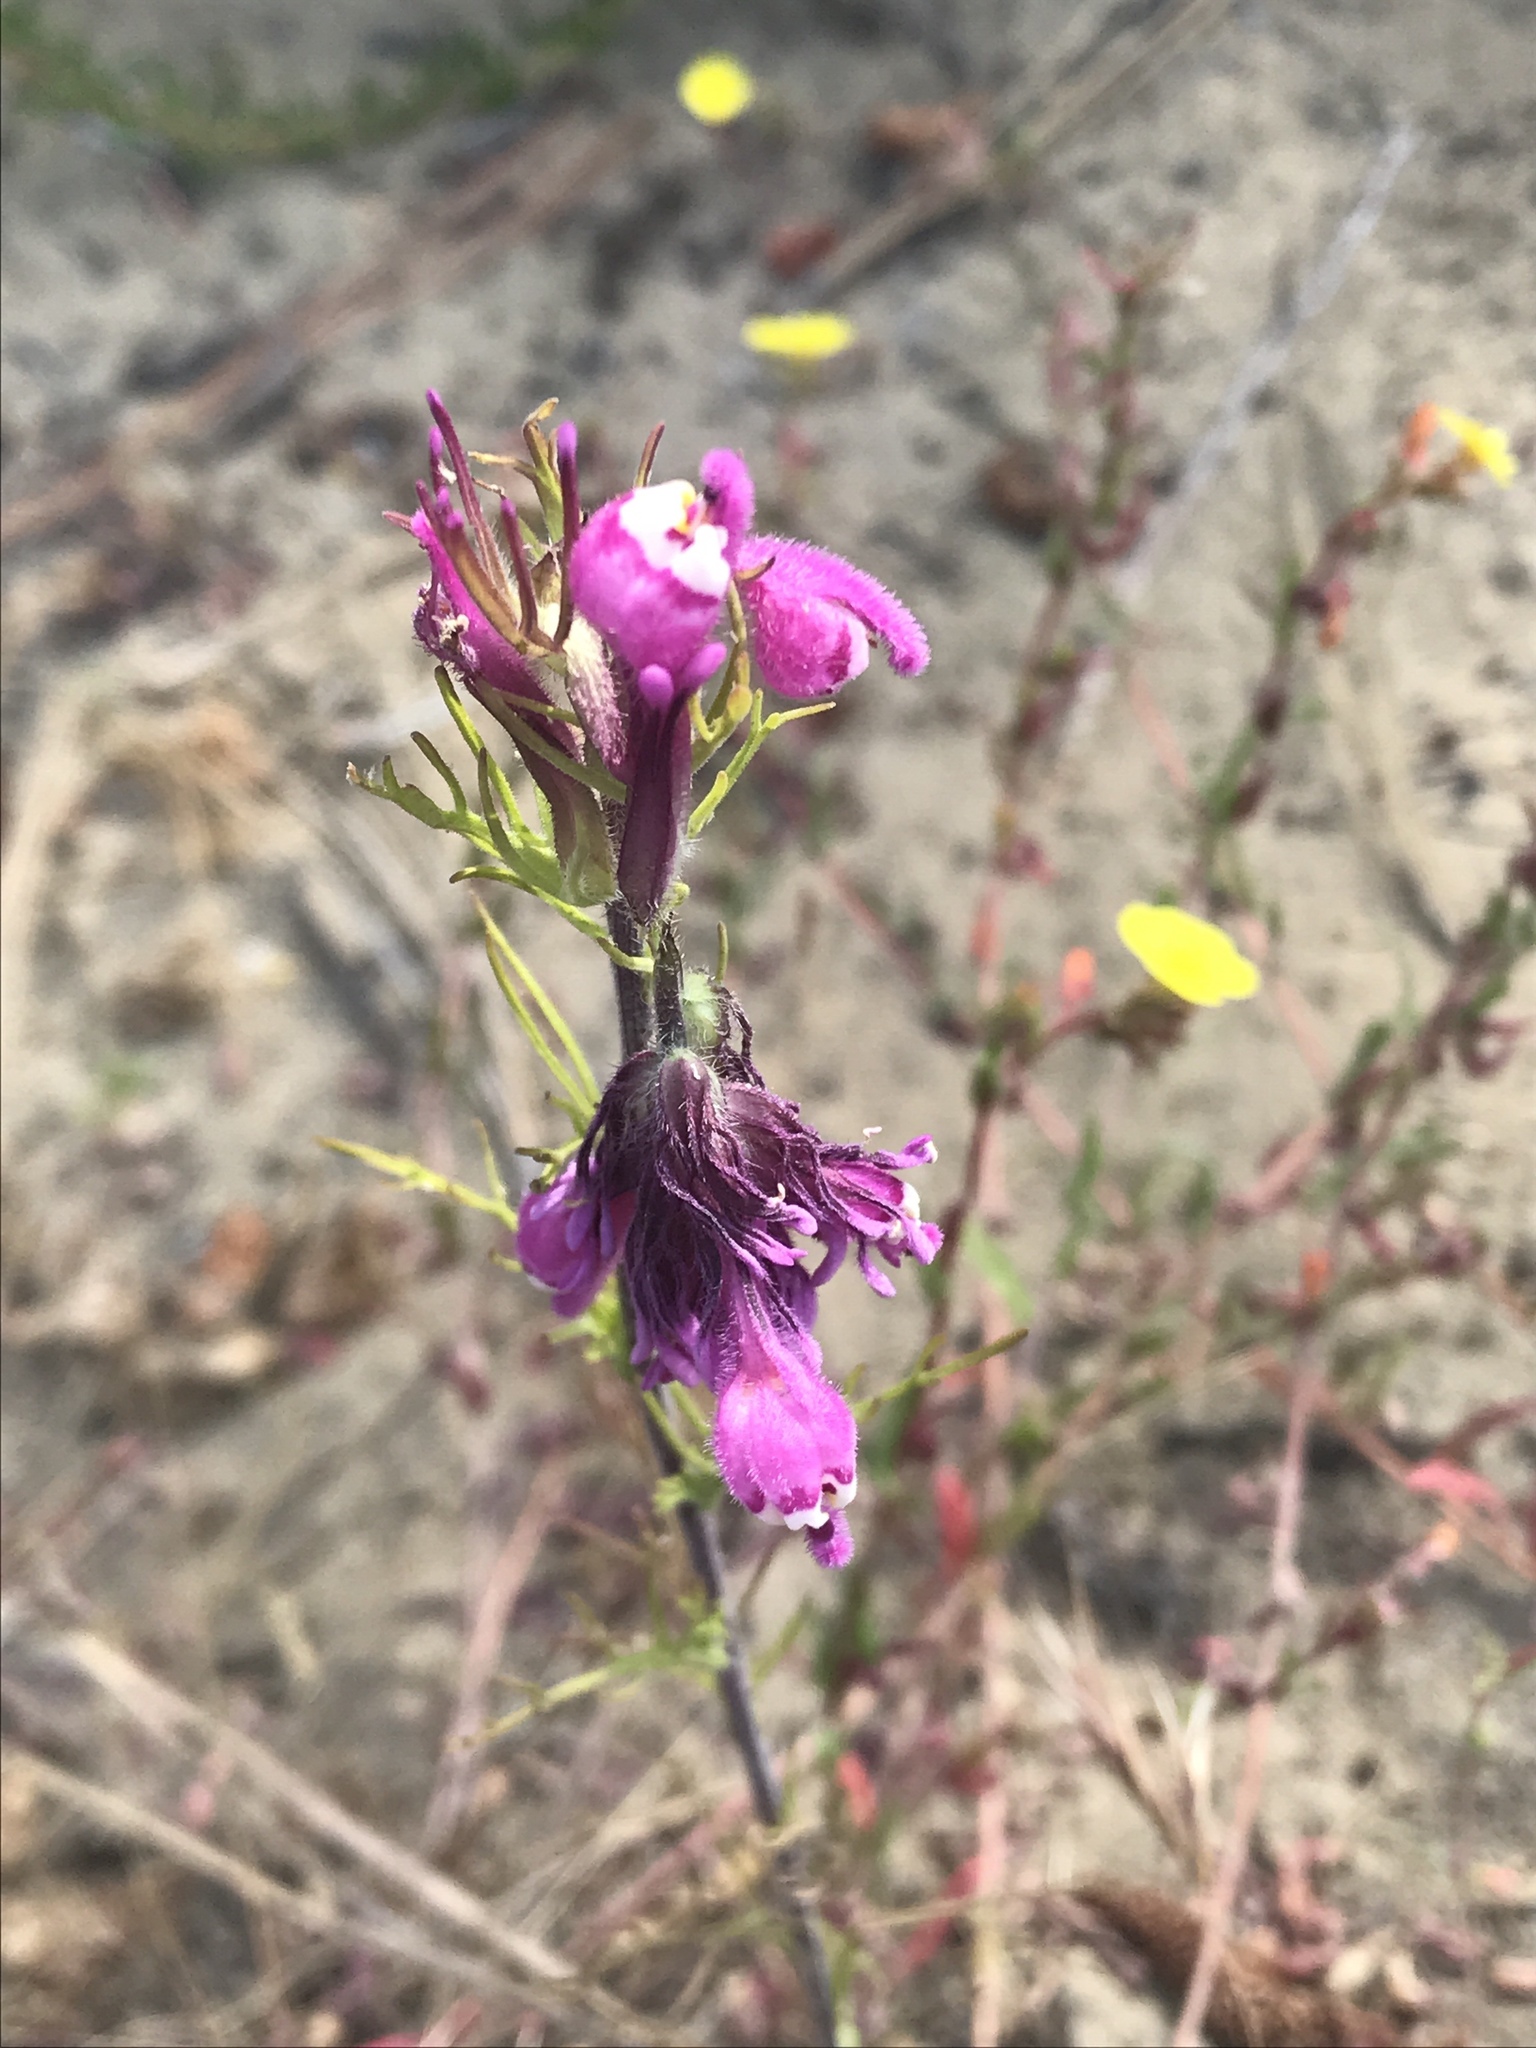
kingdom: Plantae
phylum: Tracheophyta
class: Magnoliopsida
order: Lamiales
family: Orobanchaceae
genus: Castilleja
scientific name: Castilleja exserta
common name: Purple owl-clover
